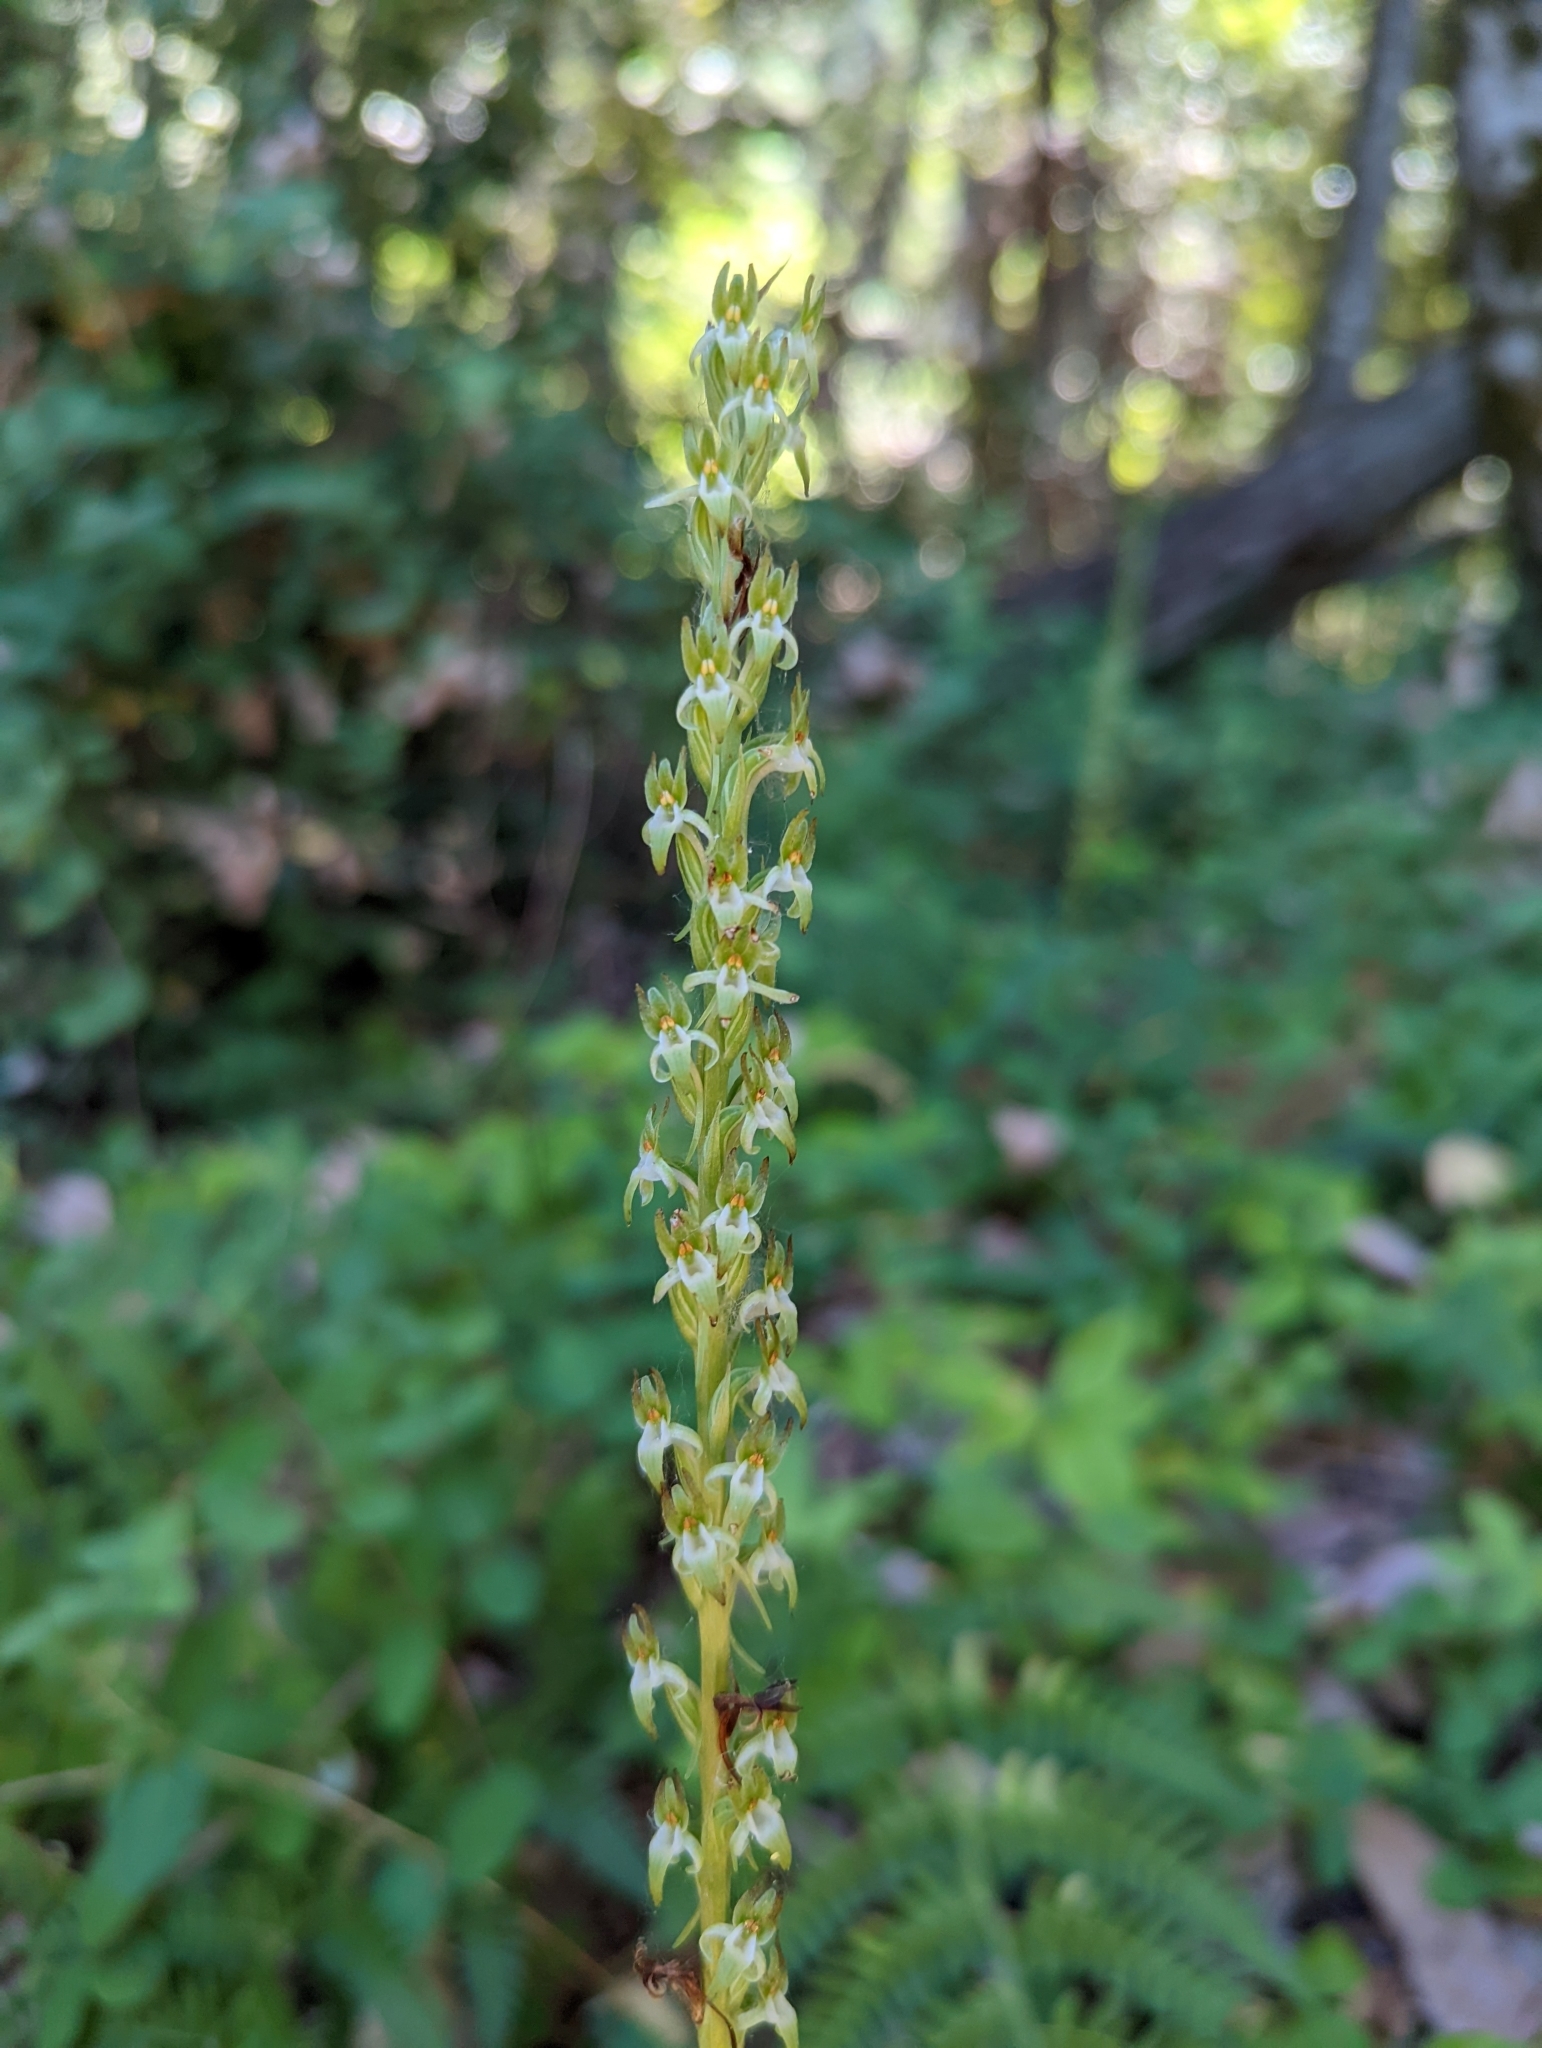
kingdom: Plantae
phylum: Tracheophyta
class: Liliopsida
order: Asparagales
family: Orchidaceae
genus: Platanthera
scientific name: Platanthera elongata
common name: Dense-flowered rein orchid
